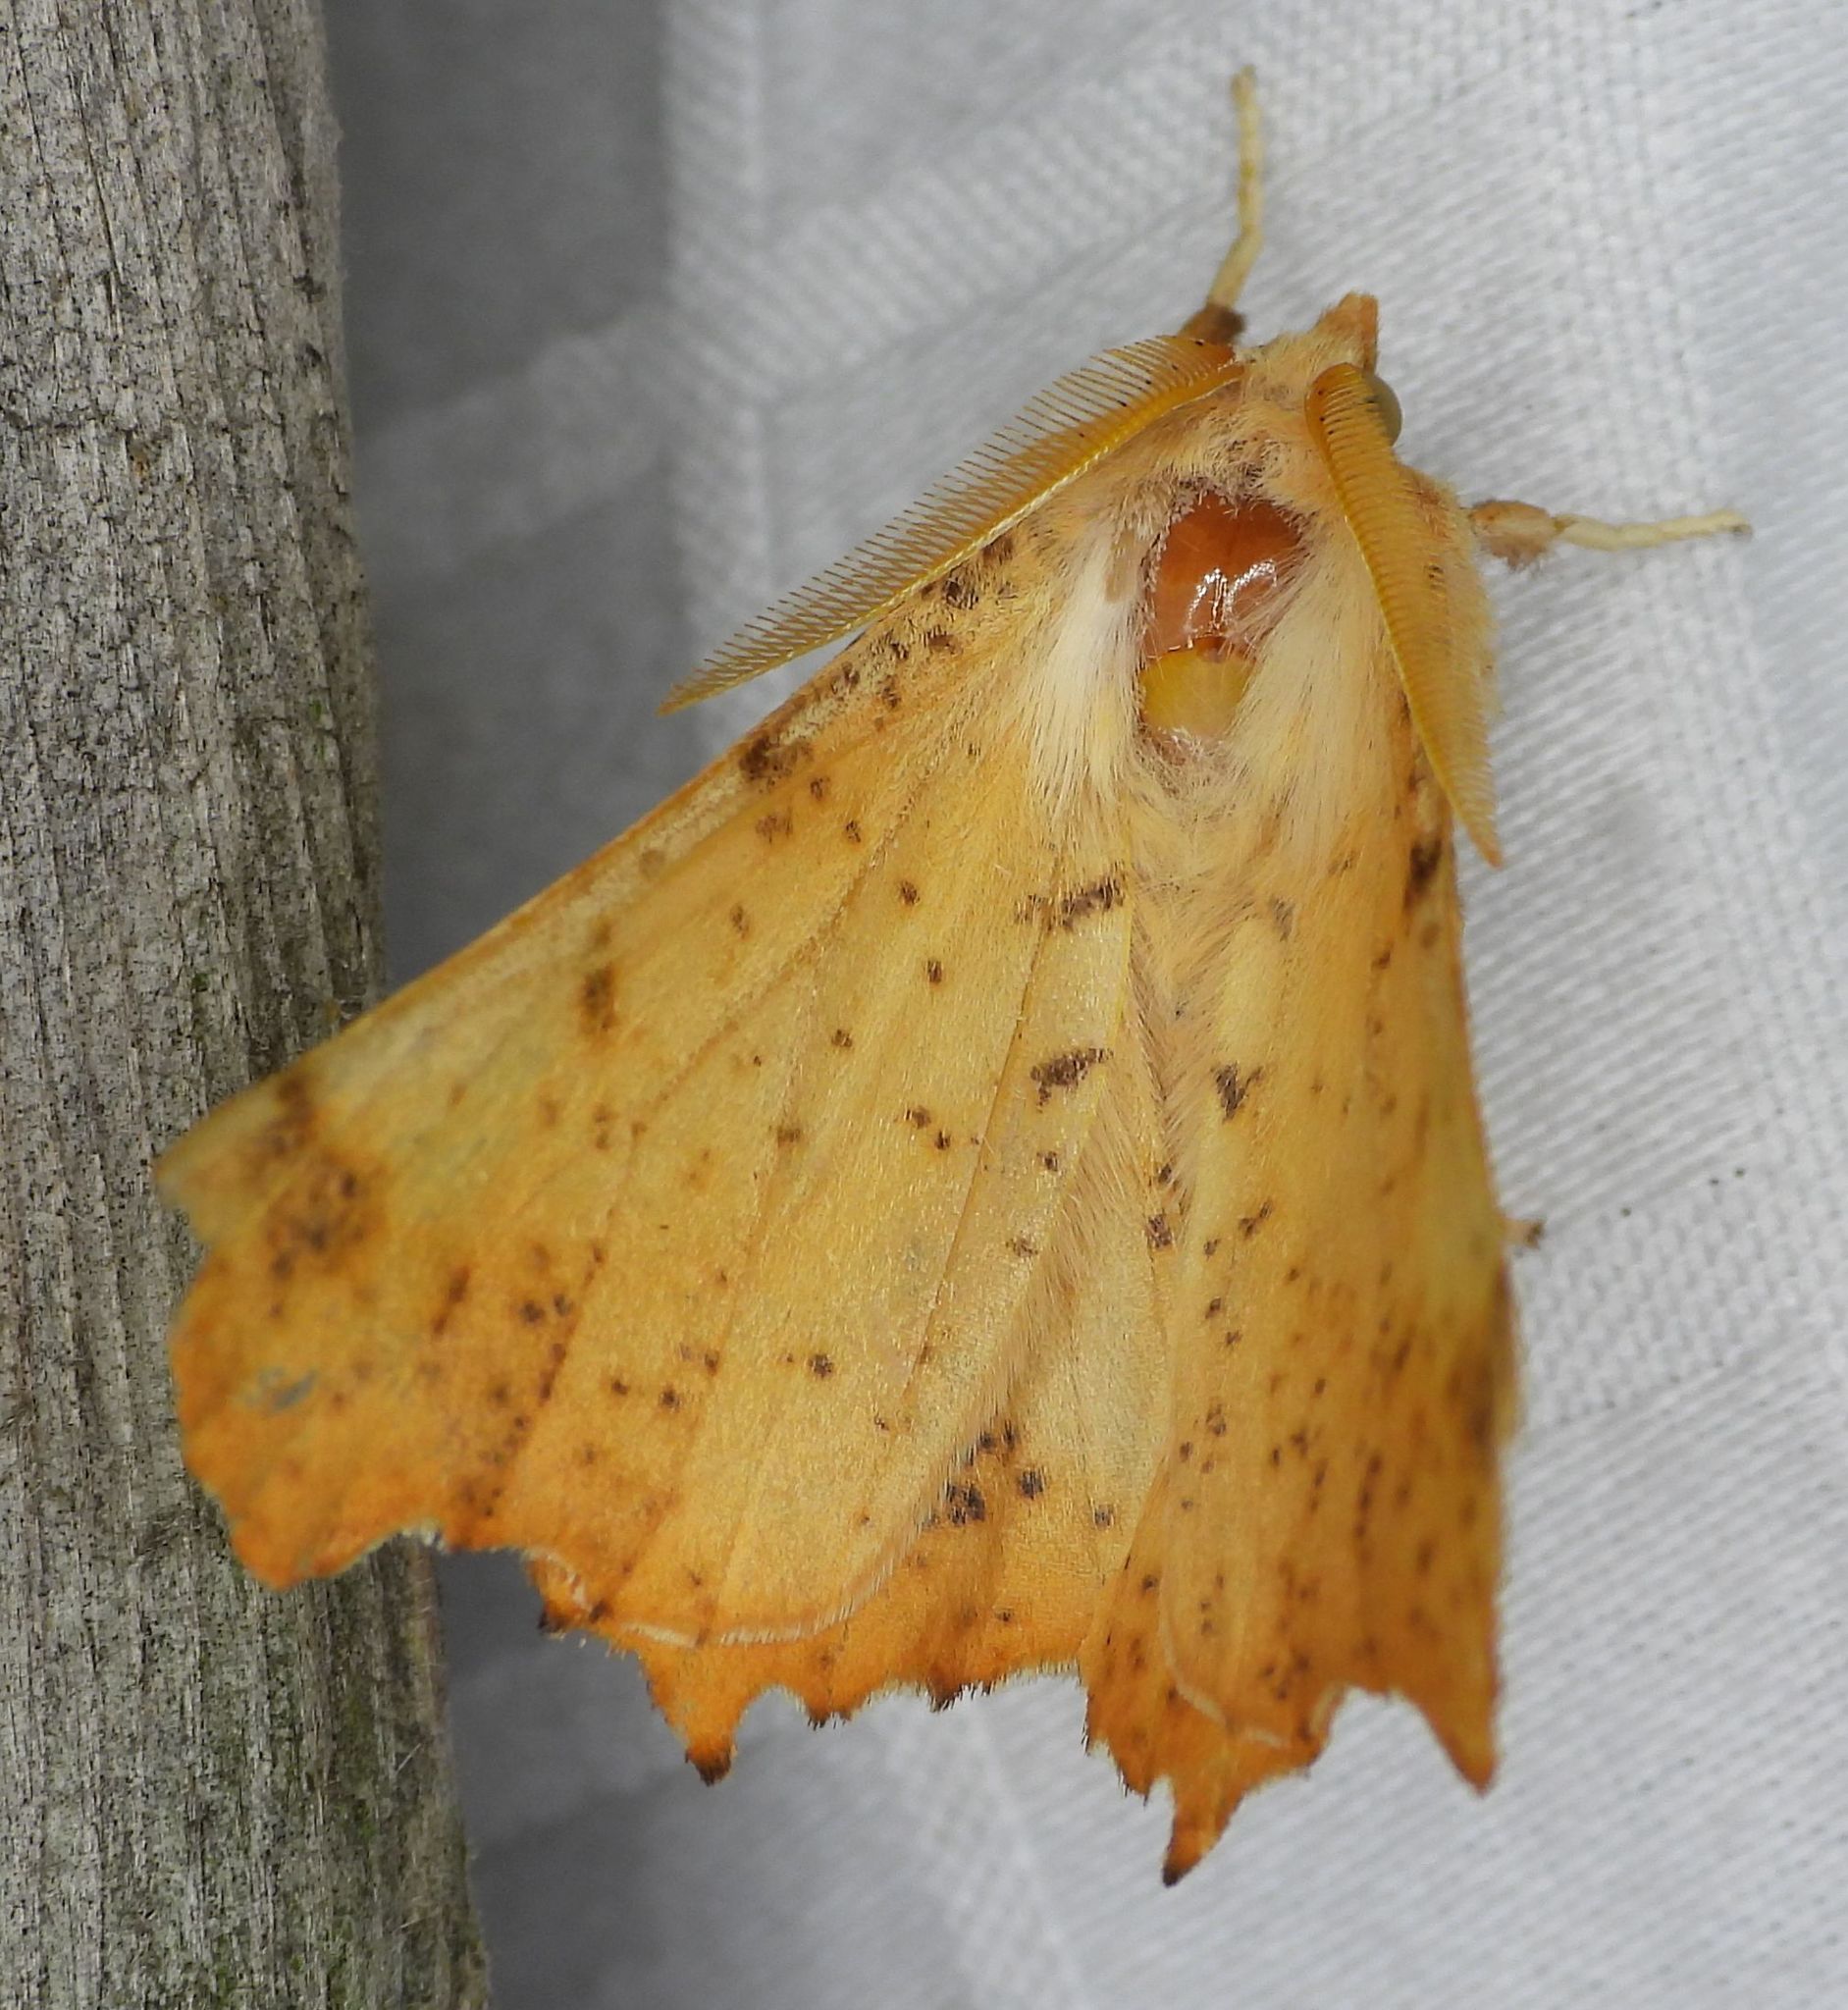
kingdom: Animalia
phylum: Arthropoda
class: Insecta
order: Lepidoptera
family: Geometridae
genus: Ennomos
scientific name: Ennomos magnaria
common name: Maple spanworm
